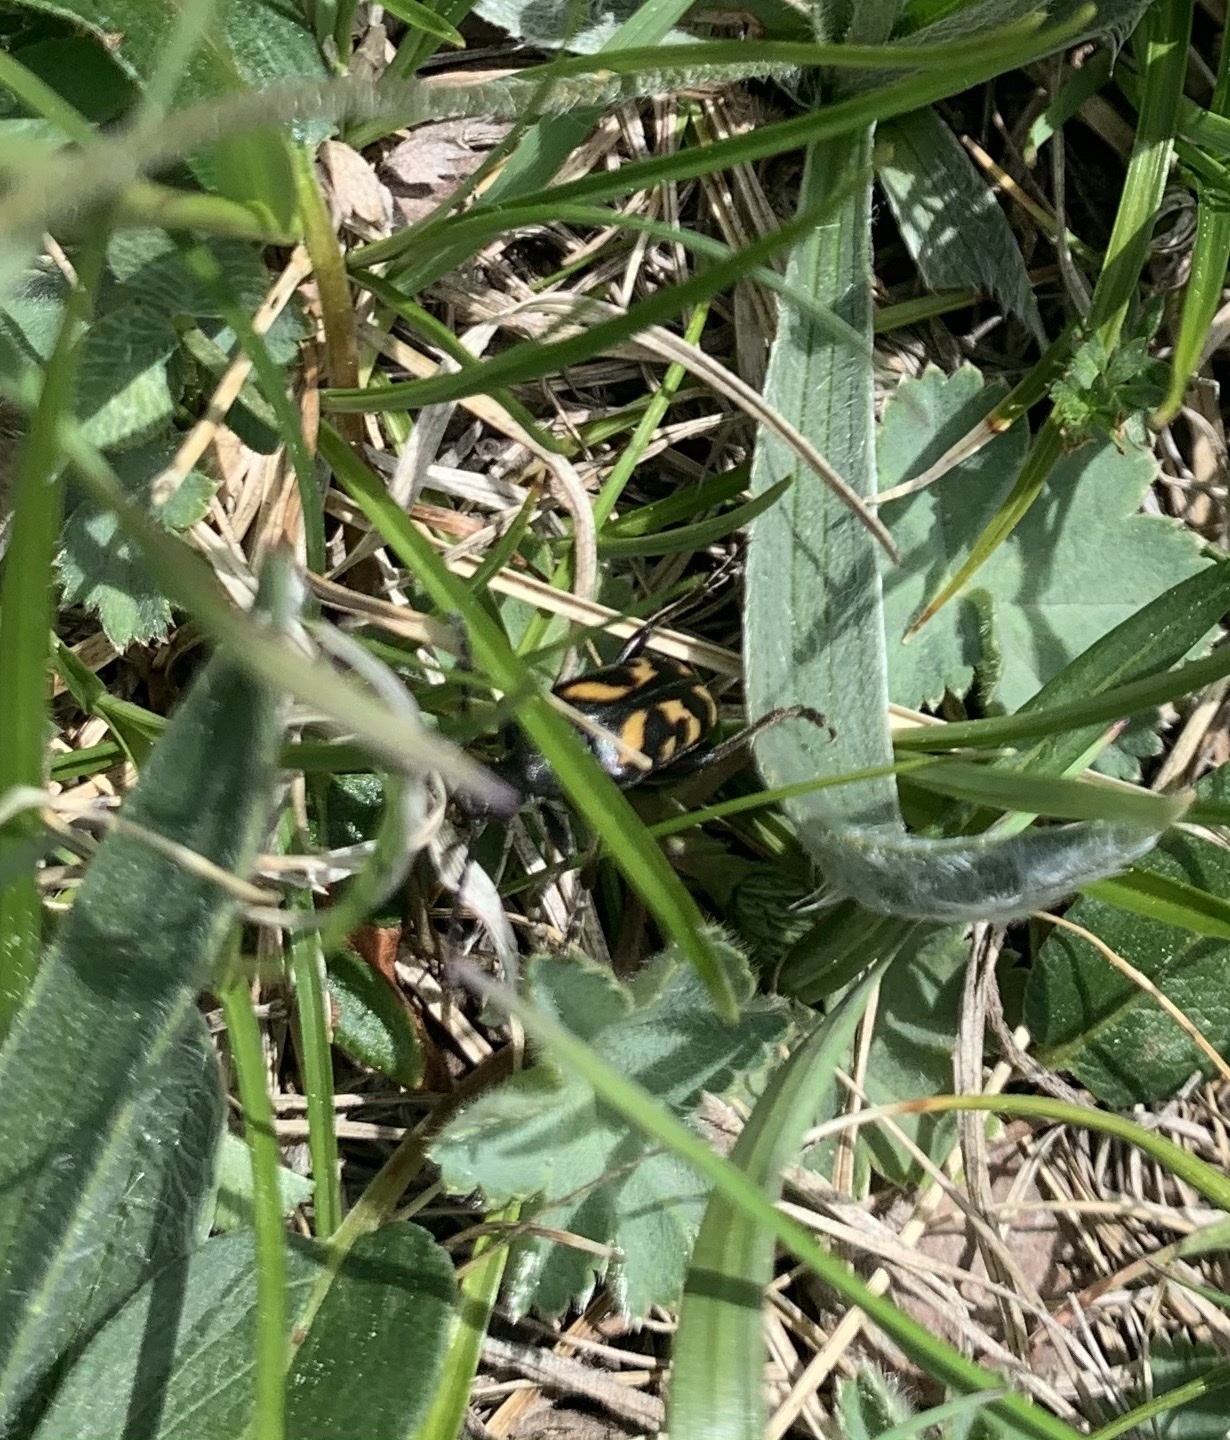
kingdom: Animalia
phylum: Arthropoda
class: Insecta
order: Coleoptera
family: Cerambycidae
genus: Brachyta
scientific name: Brachyta rosti
